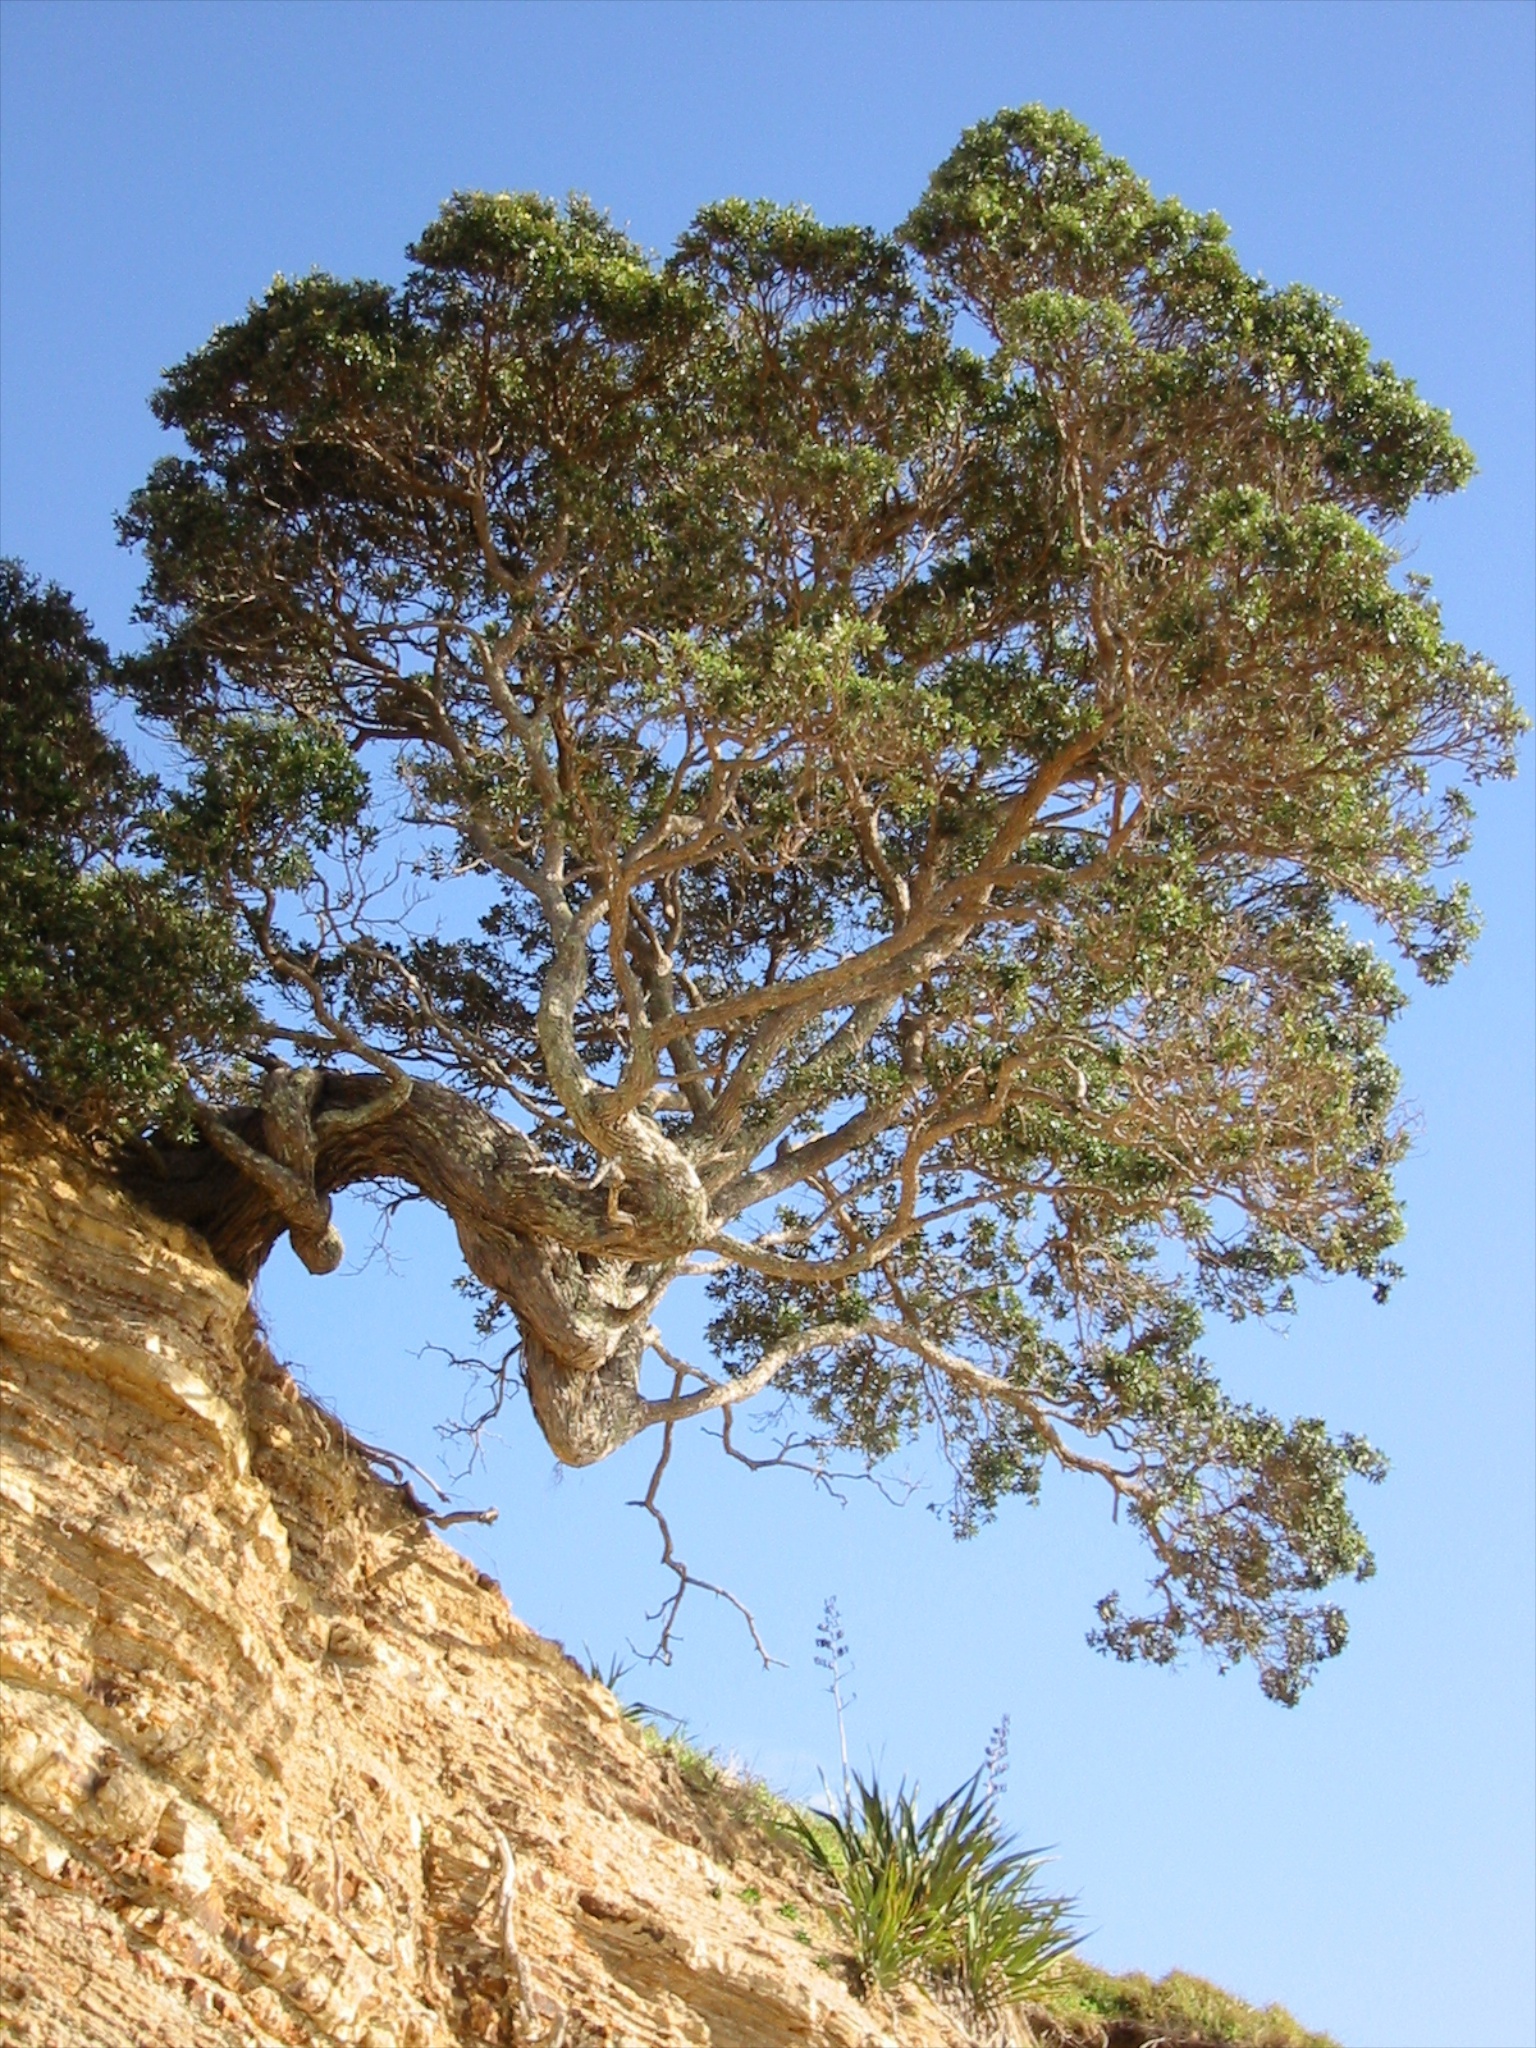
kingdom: Plantae
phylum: Tracheophyta
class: Magnoliopsida
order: Myrtales
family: Myrtaceae
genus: Metrosideros
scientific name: Metrosideros excelsa
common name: New zealand christmastree
